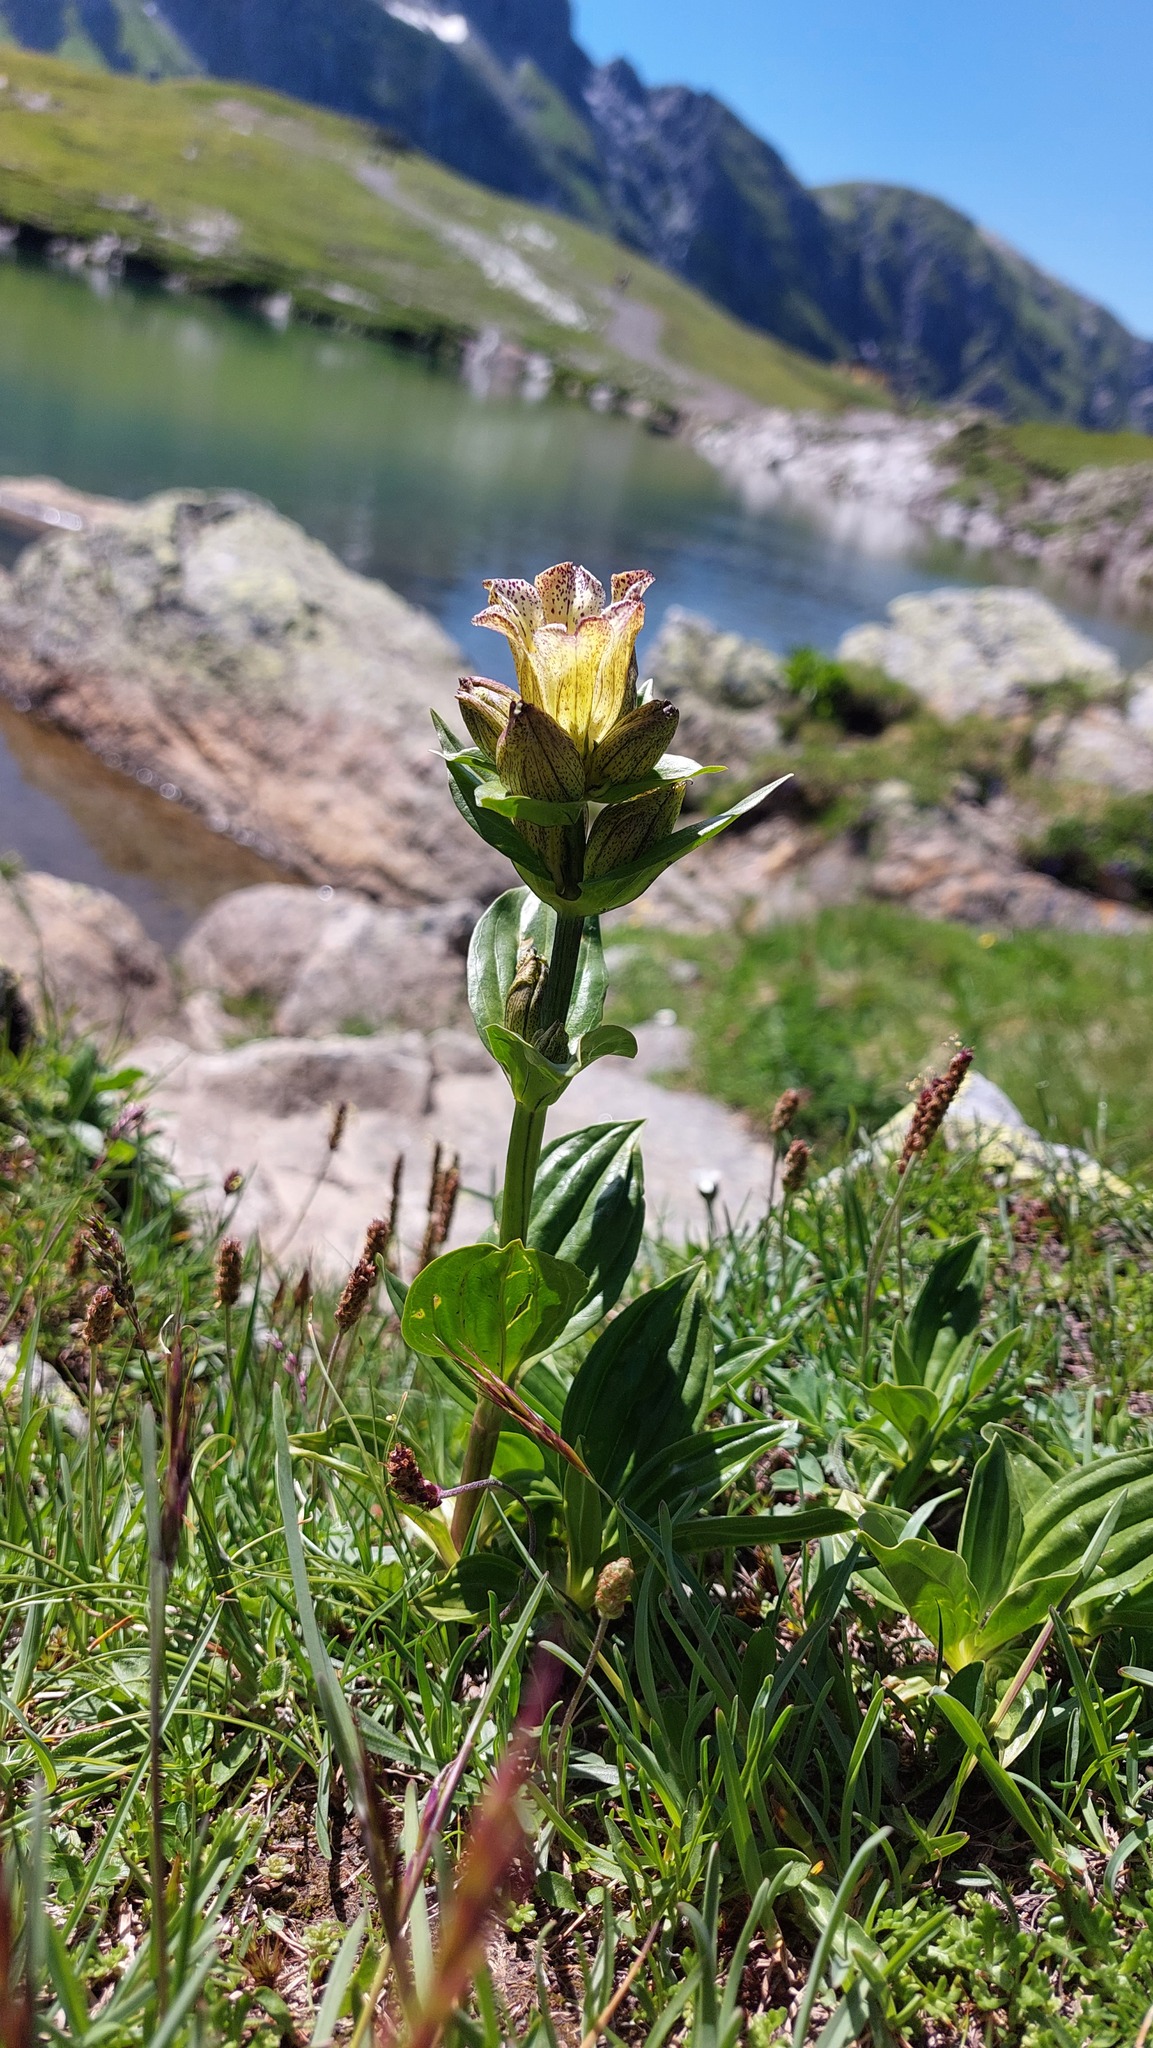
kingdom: Plantae
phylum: Tracheophyta
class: Magnoliopsida
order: Gentianales
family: Gentianaceae
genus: Gentiana
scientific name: Gentiana punctata
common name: Spotted gentian
